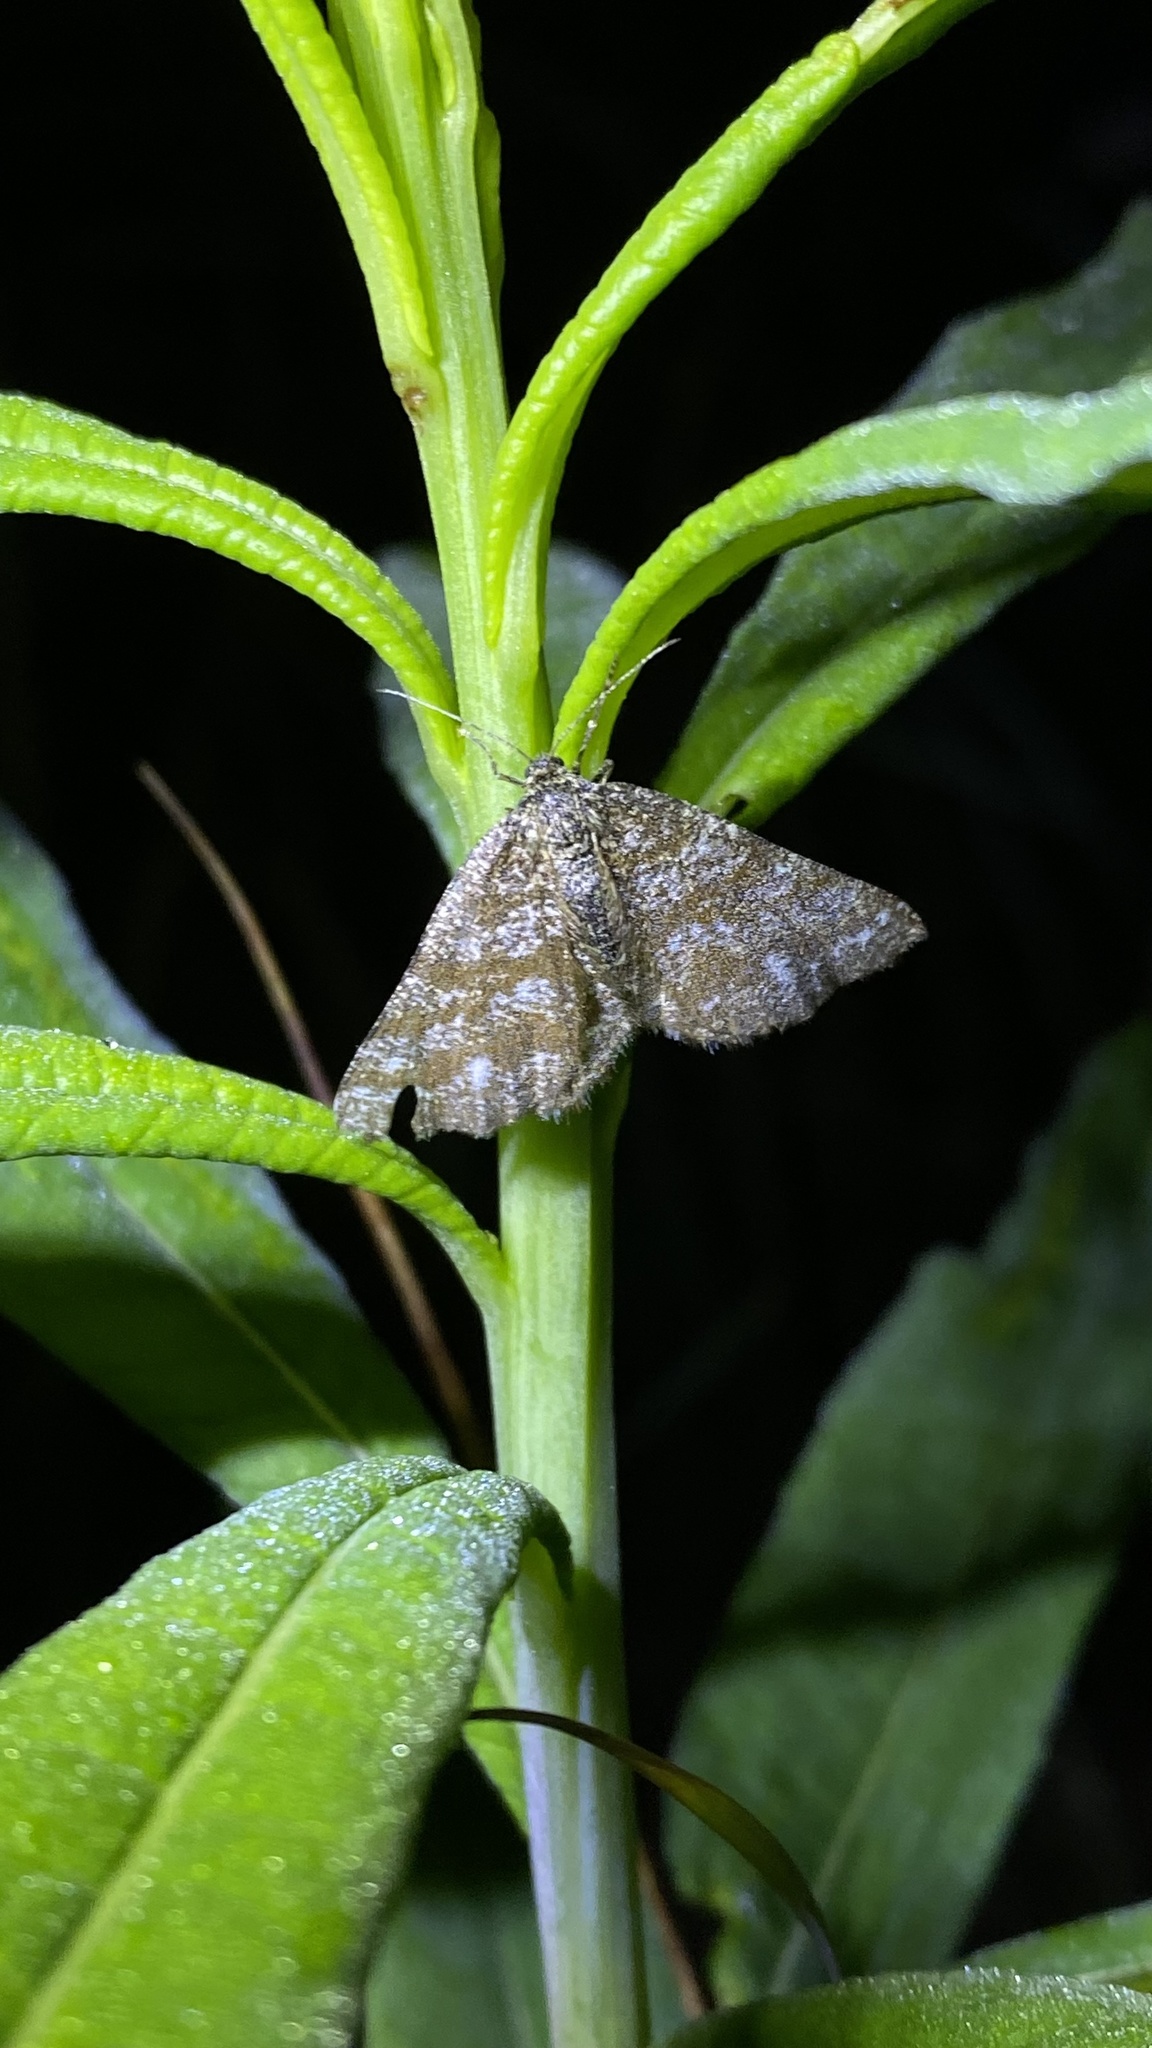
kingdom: Animalia
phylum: Arthropoda
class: Insecta
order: Lepidoptera
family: Geometridae
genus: Ematurga
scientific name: Ematurga atomaria
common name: Common heath
